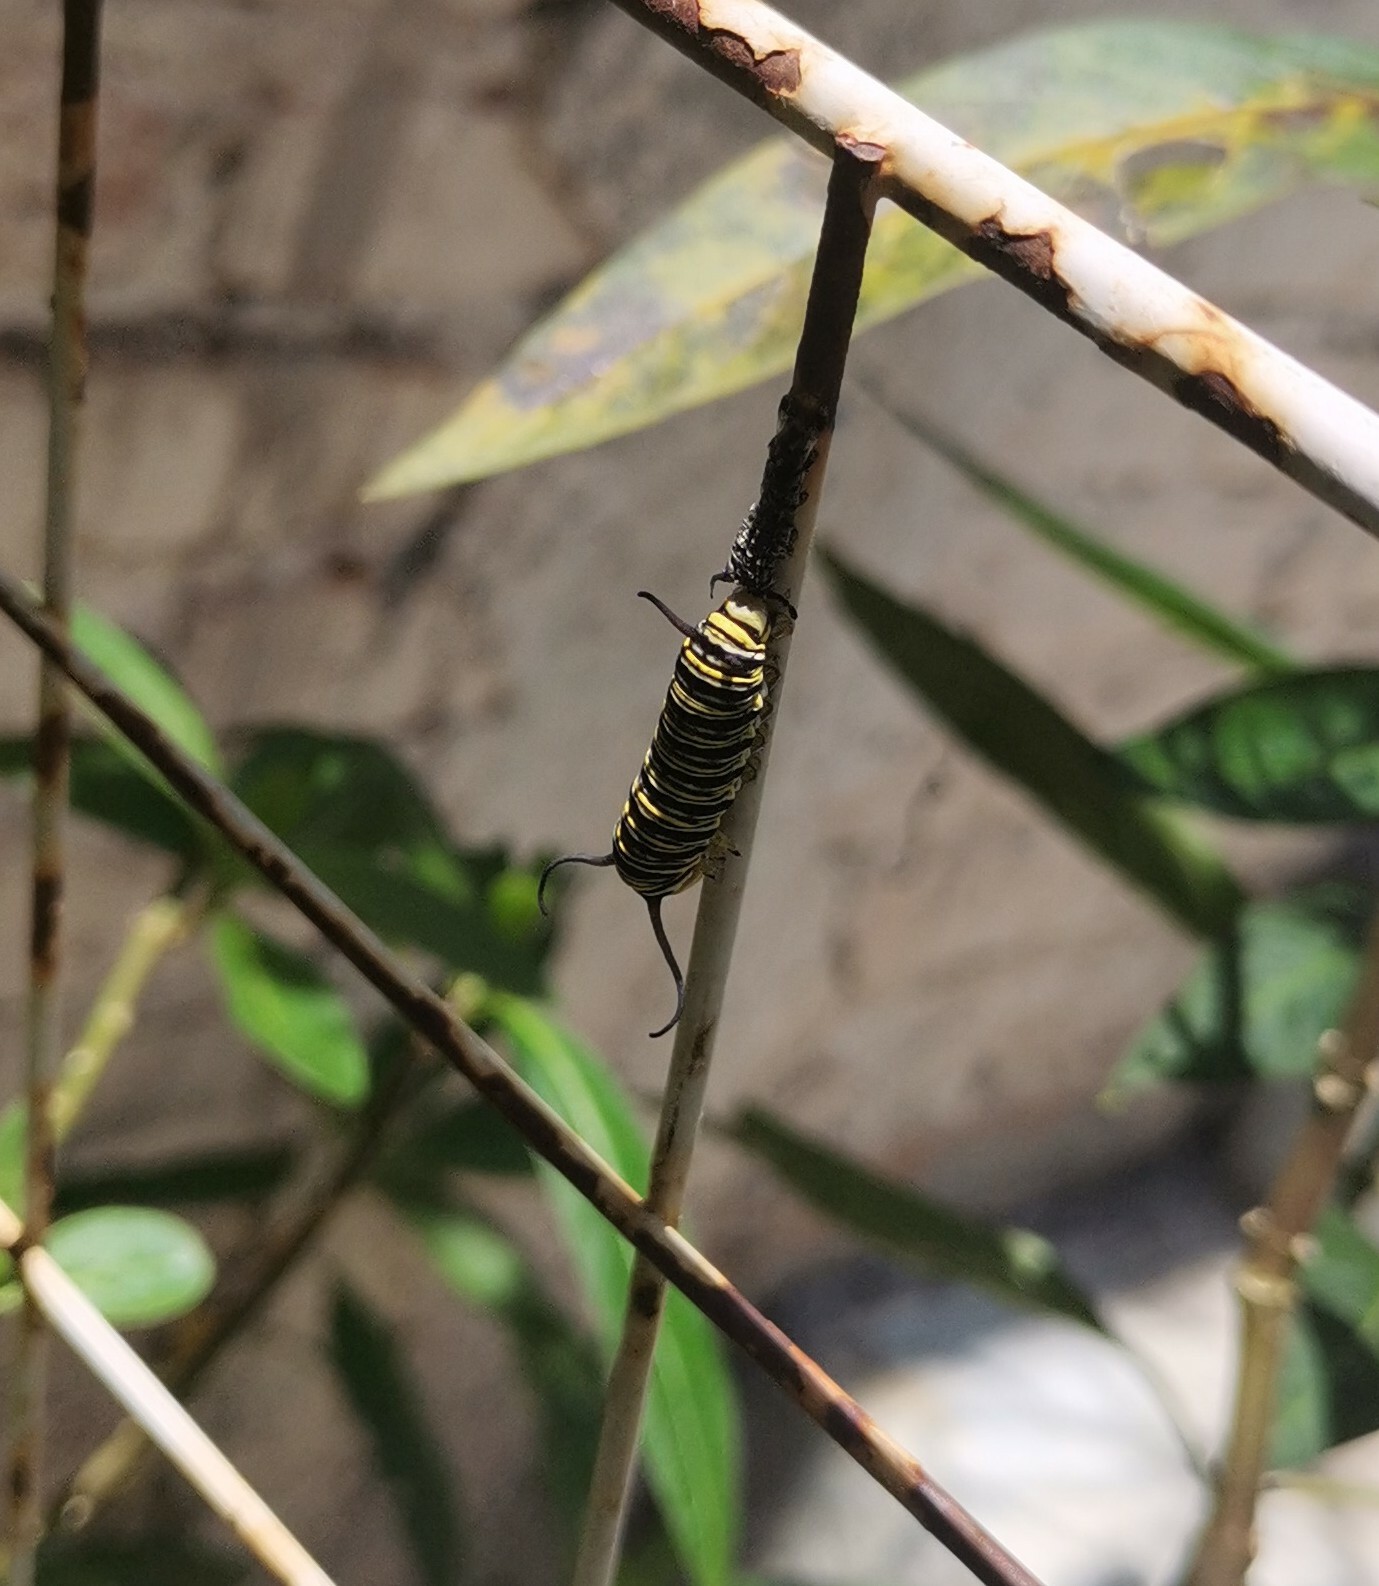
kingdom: Animalia
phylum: Arthropoda
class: Insecta
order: Lepidoptera
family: Nymphalidae
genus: Danaus
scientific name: Danaus plexippus
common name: Monarch
